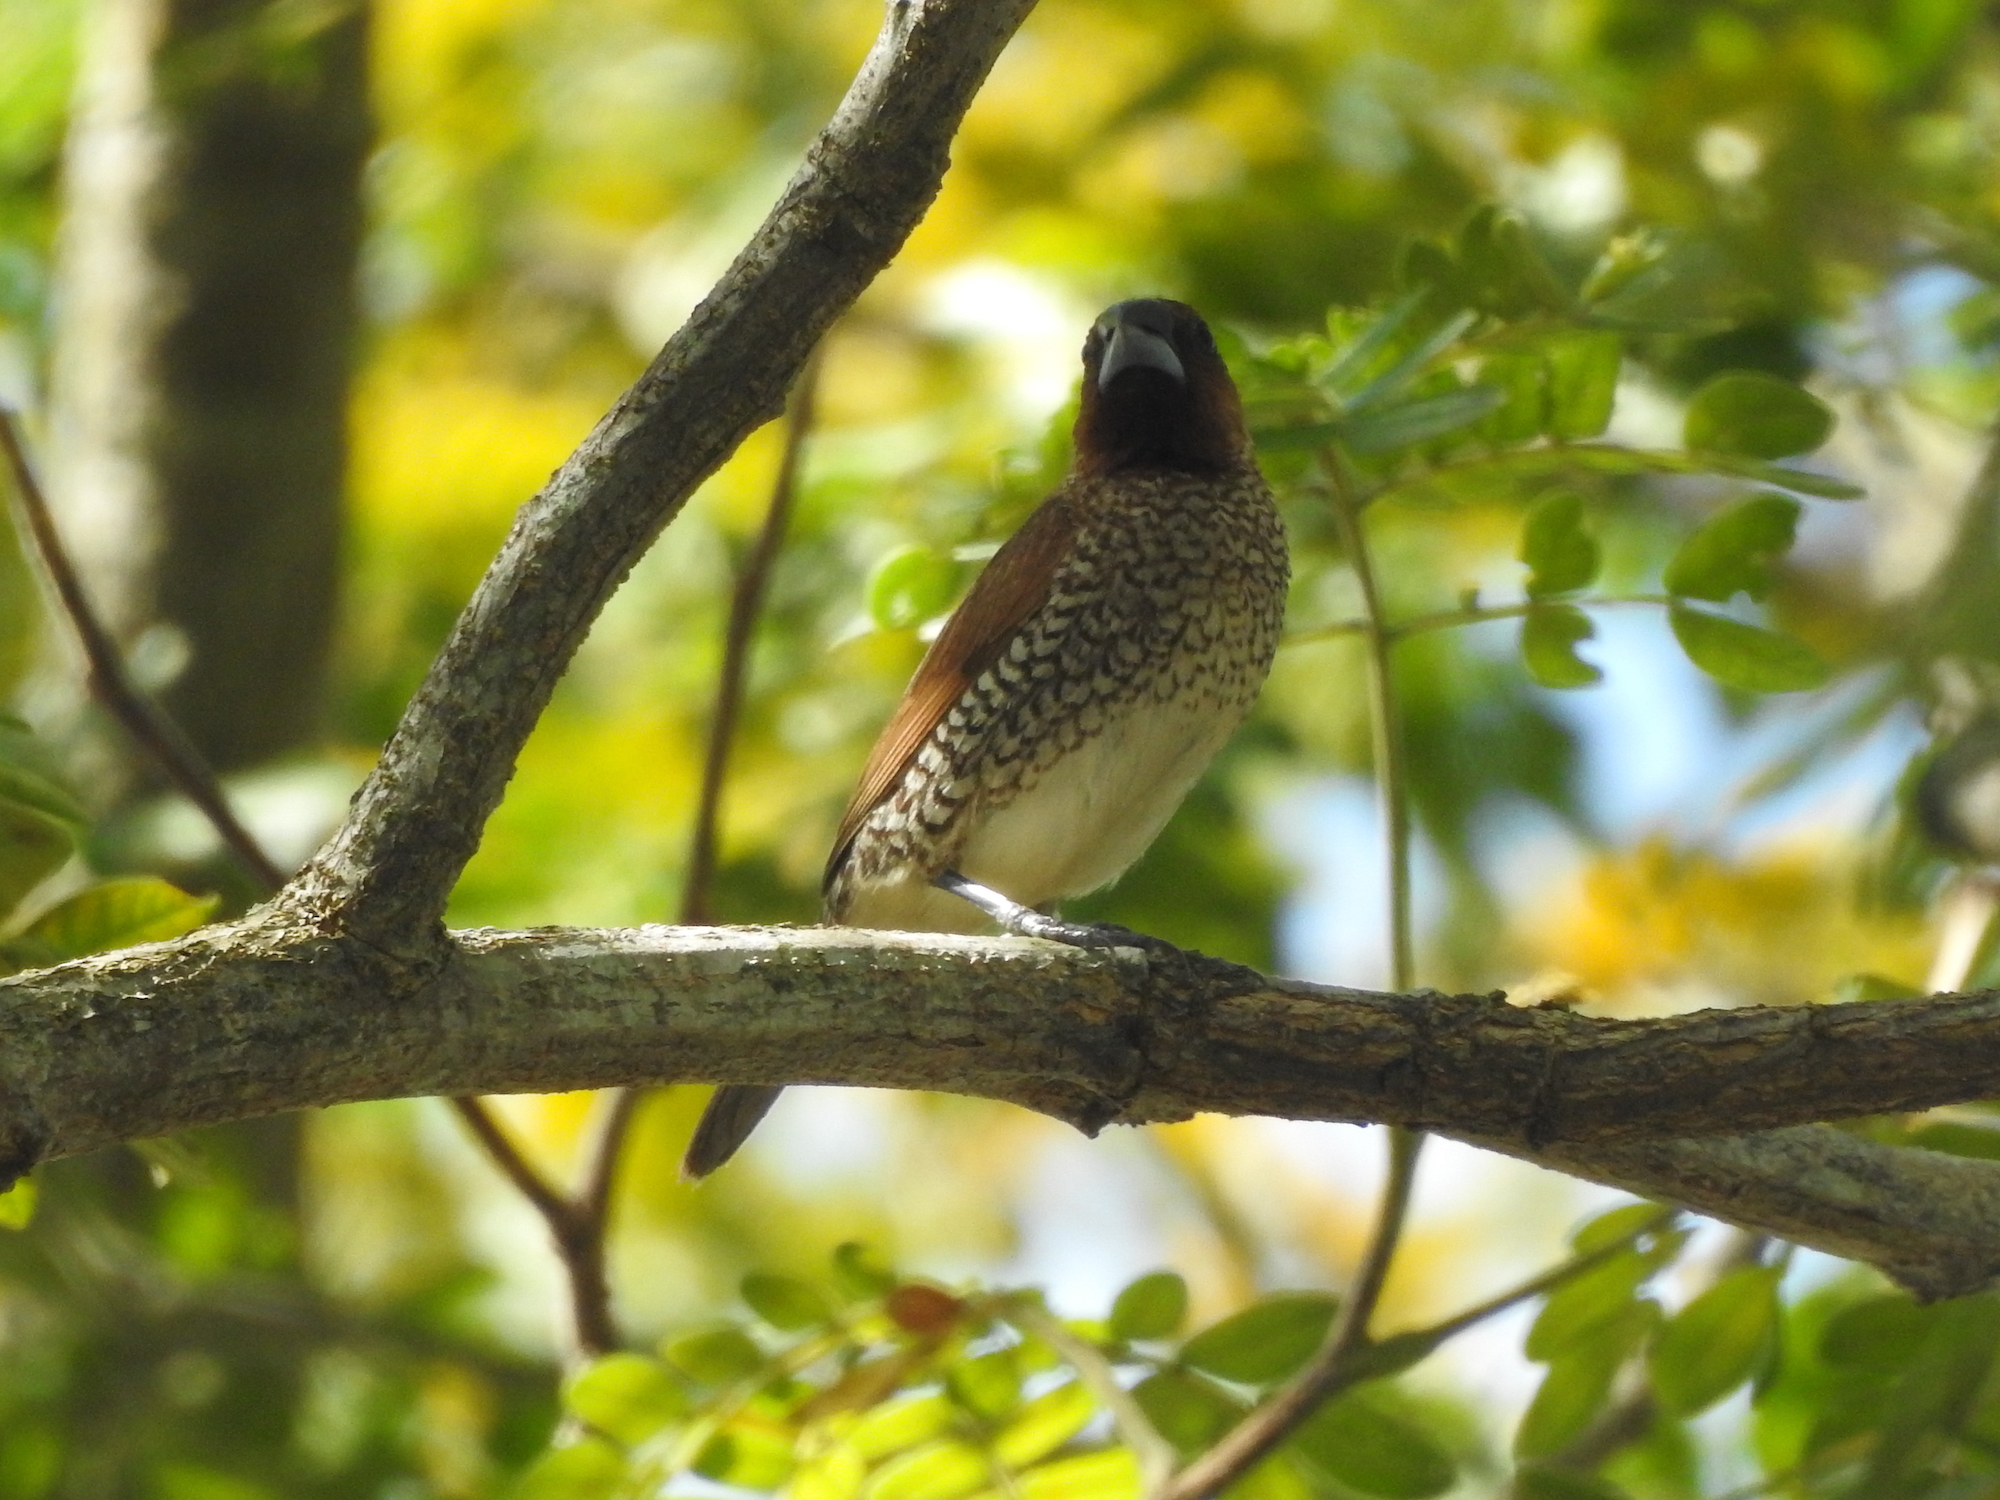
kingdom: Animalia
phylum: Chordata
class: Aves
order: Passeriformes
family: Estrildidae
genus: Lonchura
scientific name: Lonchura punctulata
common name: Scaly-breasted munia
